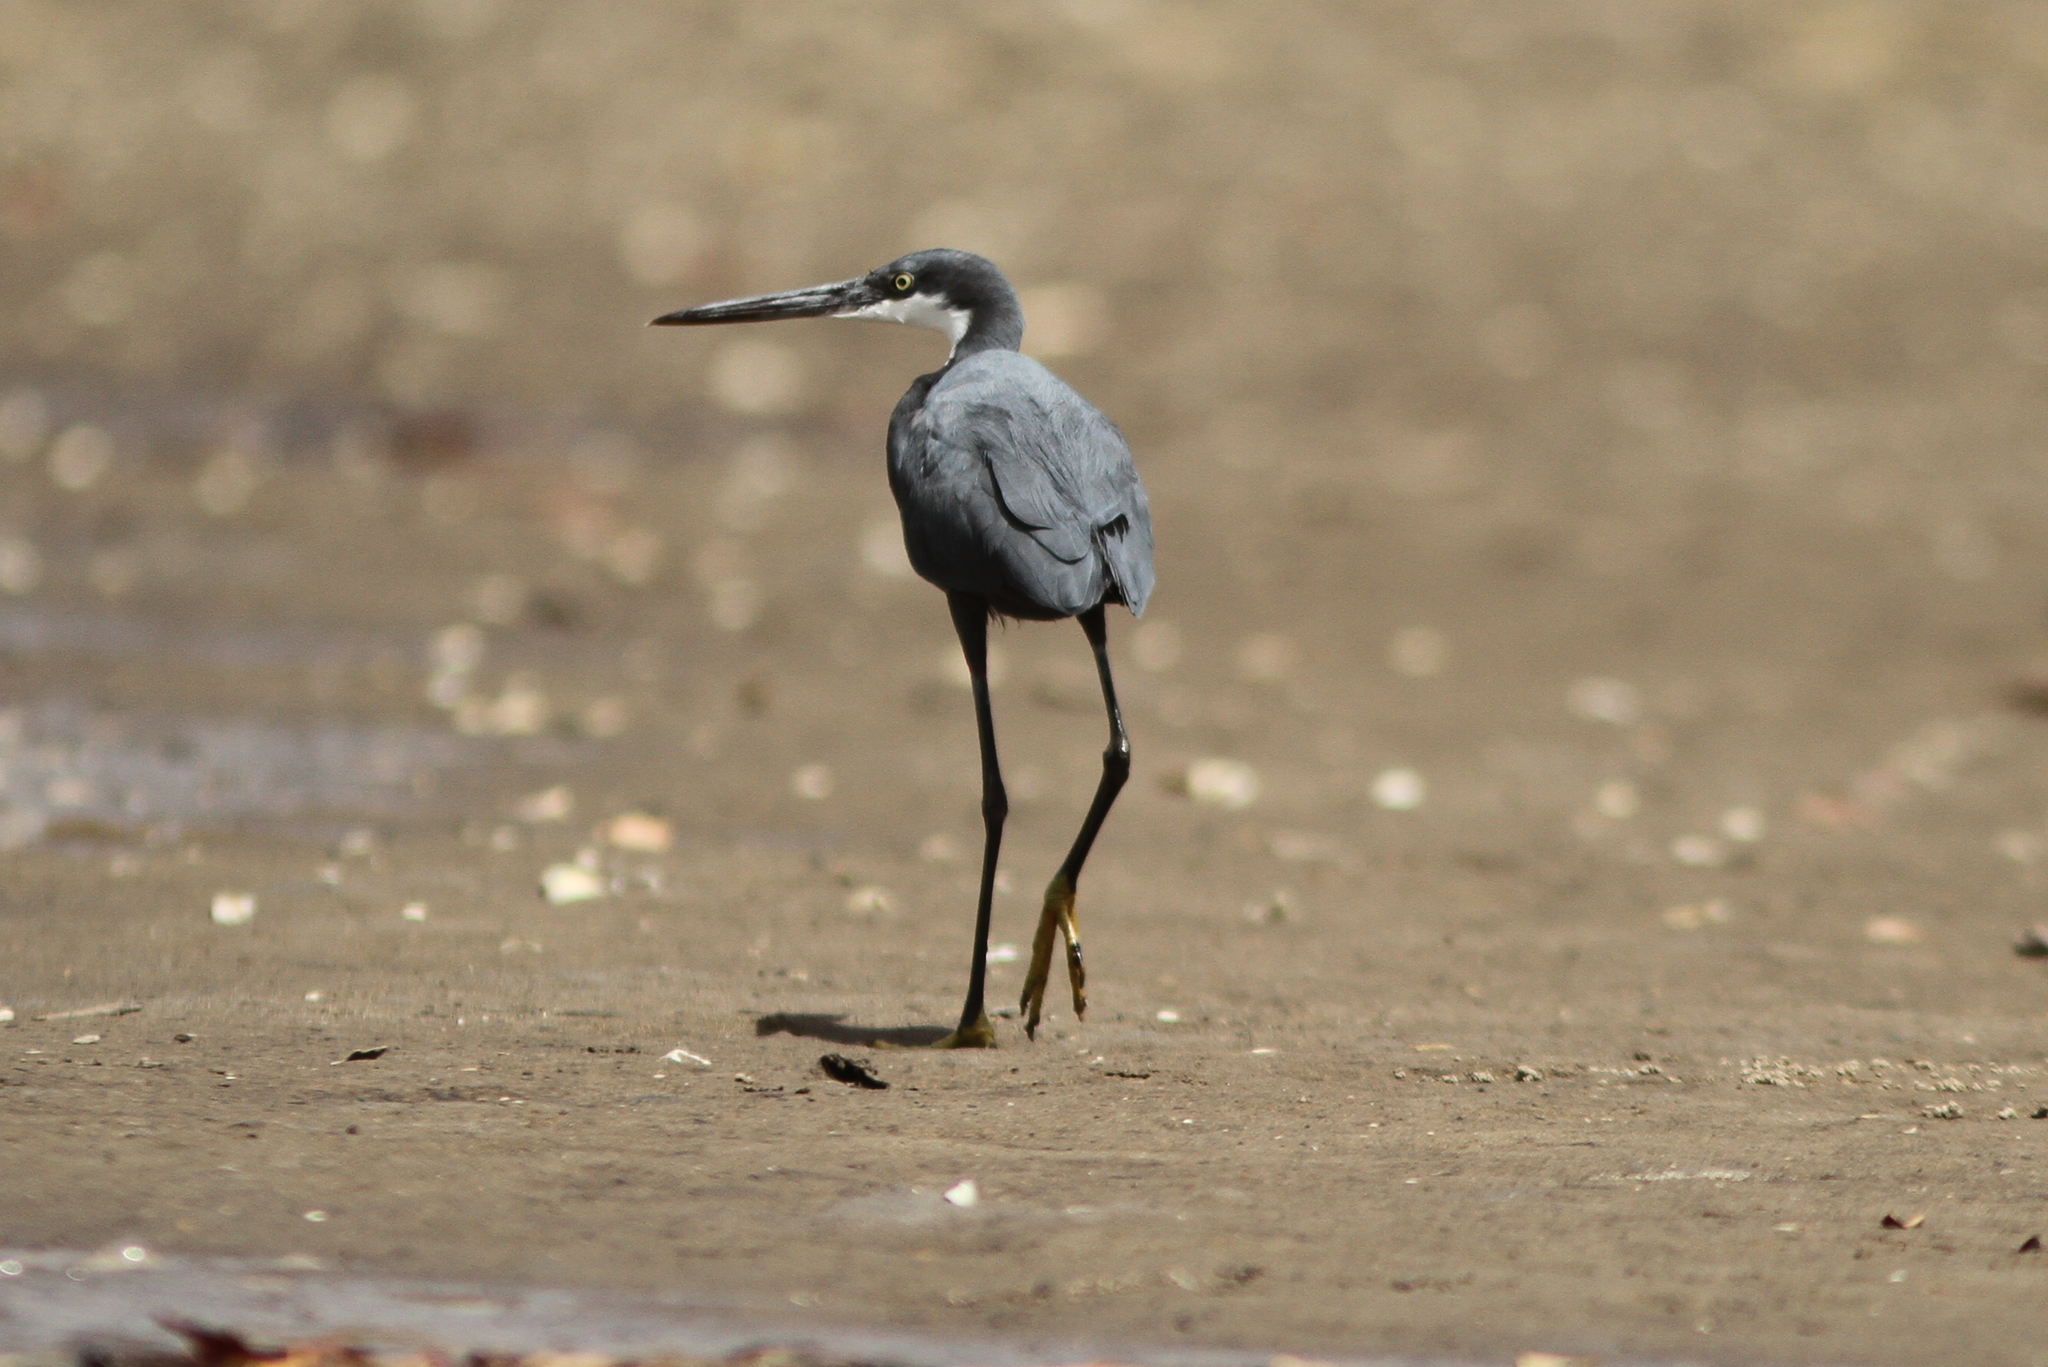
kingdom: Animalia
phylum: Chordata
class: Aves
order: Pelecaniformes
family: Ardeidae
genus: Egretta
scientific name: Egretta gularis
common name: Western reef-heron
